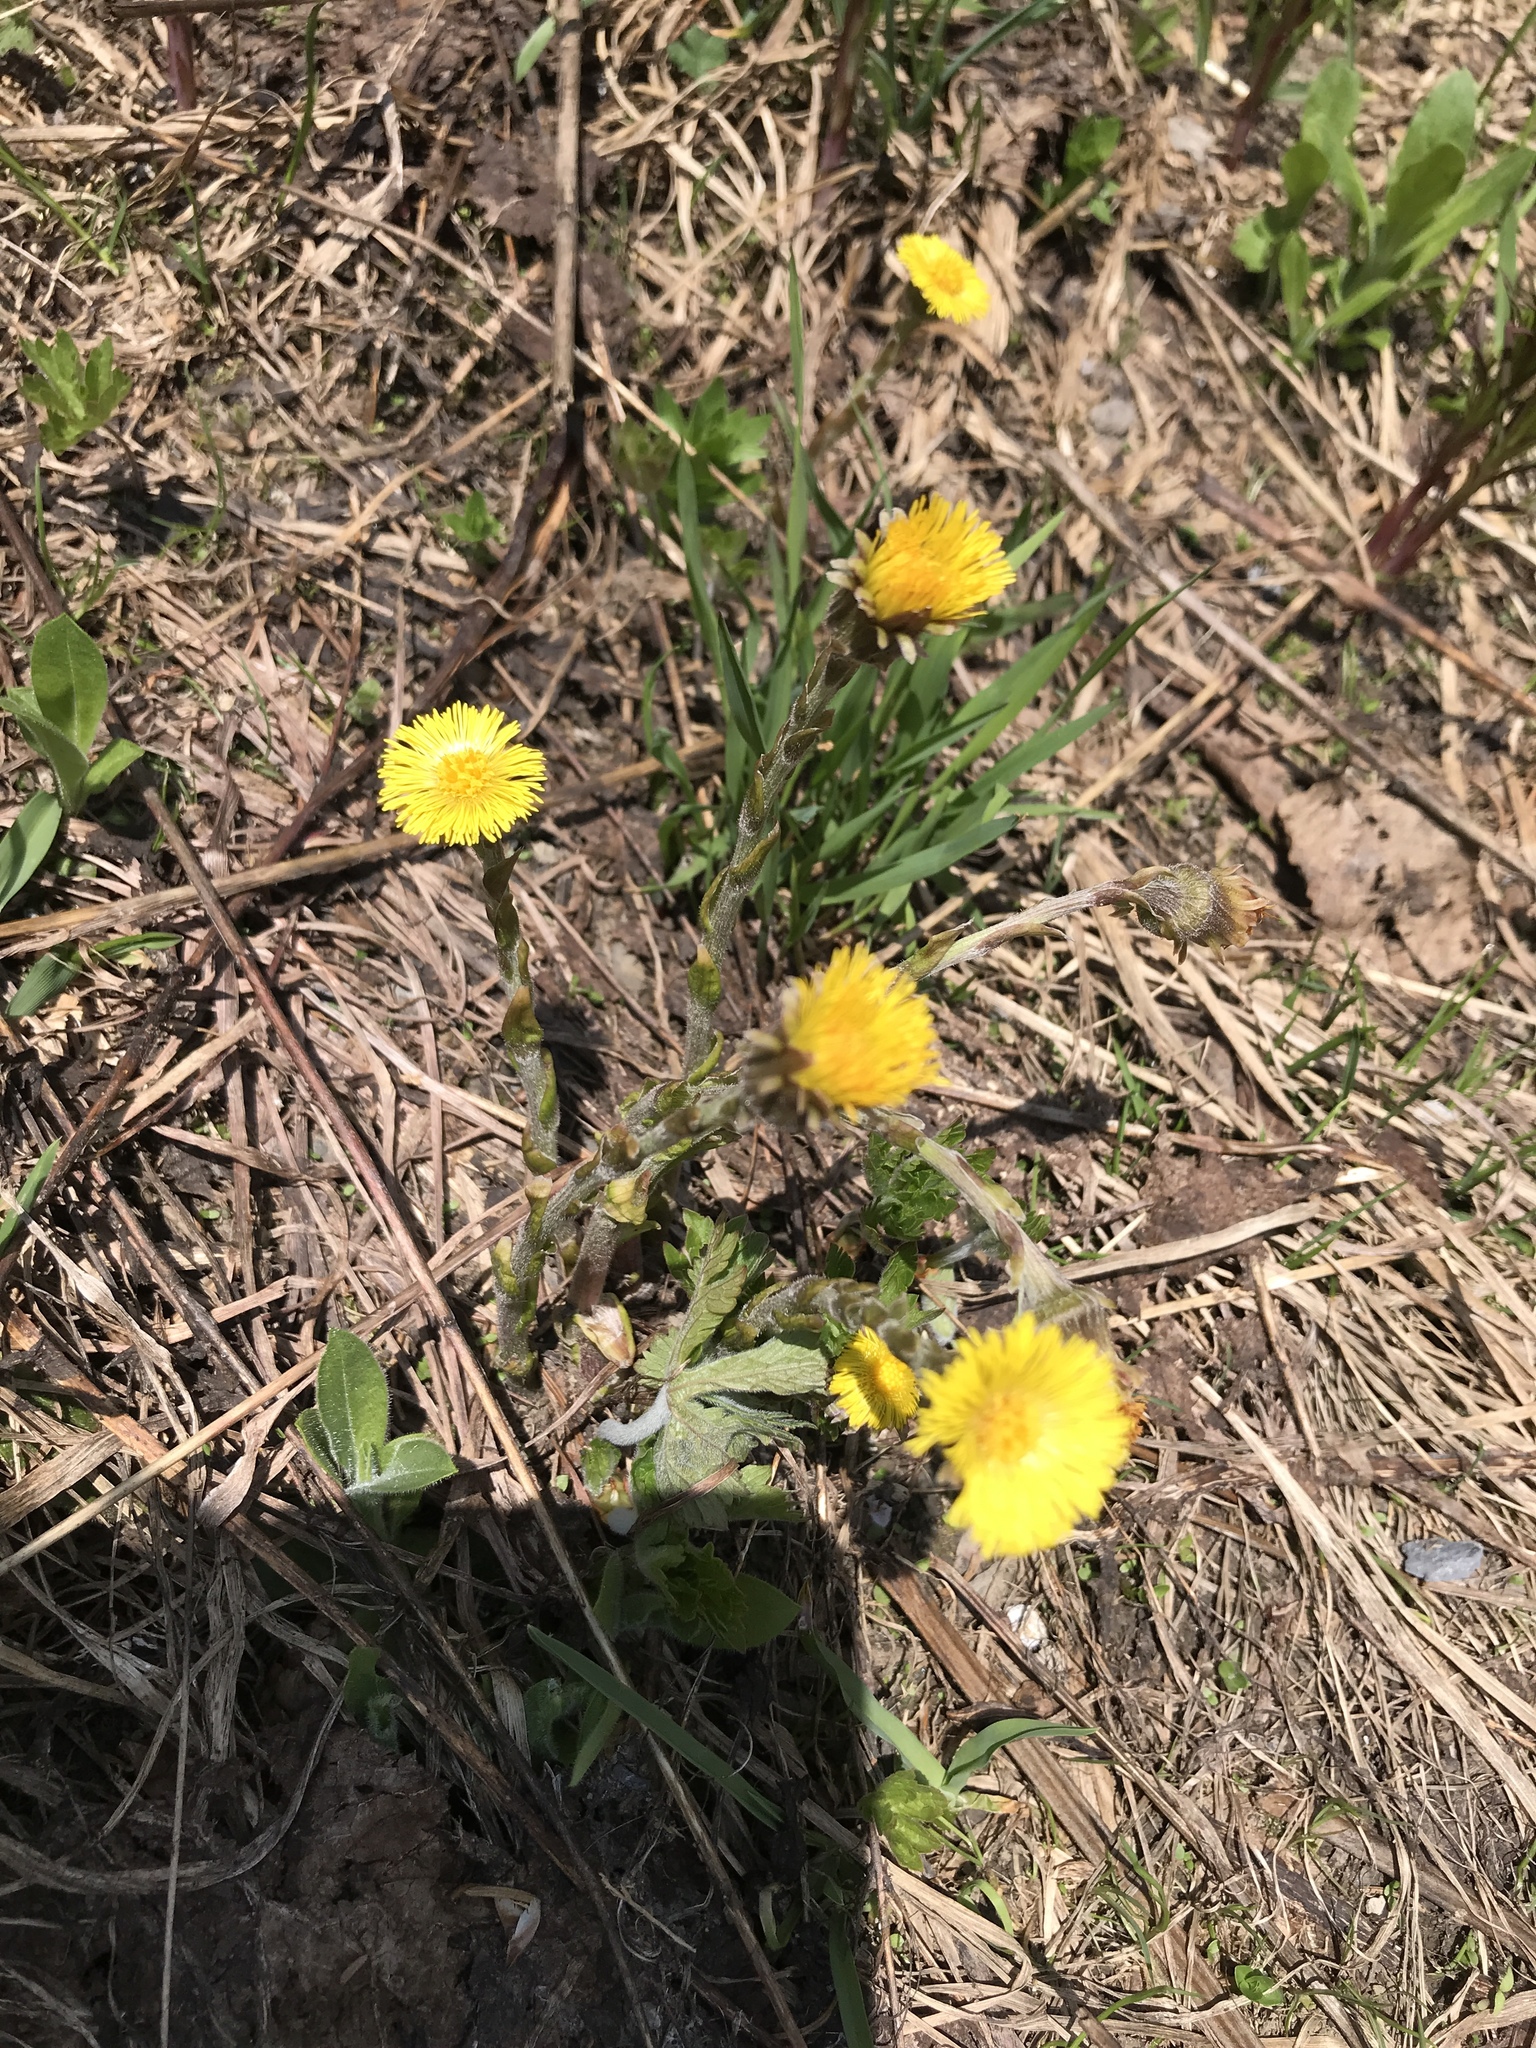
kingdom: Plantae
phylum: Tracheophyta
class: Magnoliopsida
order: Asterales
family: Asteraceae
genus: Tussilago
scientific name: Tussilago farfara
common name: Coltsfoot
